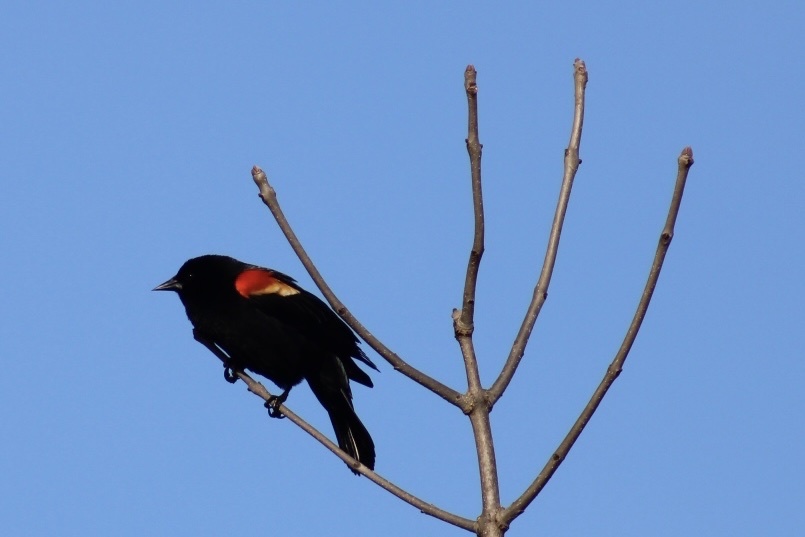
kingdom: Animalia
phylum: Chordata
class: Aves
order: Passeriformes
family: Icteridae
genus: Agelaius
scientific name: Agelaius phoeniceus
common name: Red-winged blackbird
